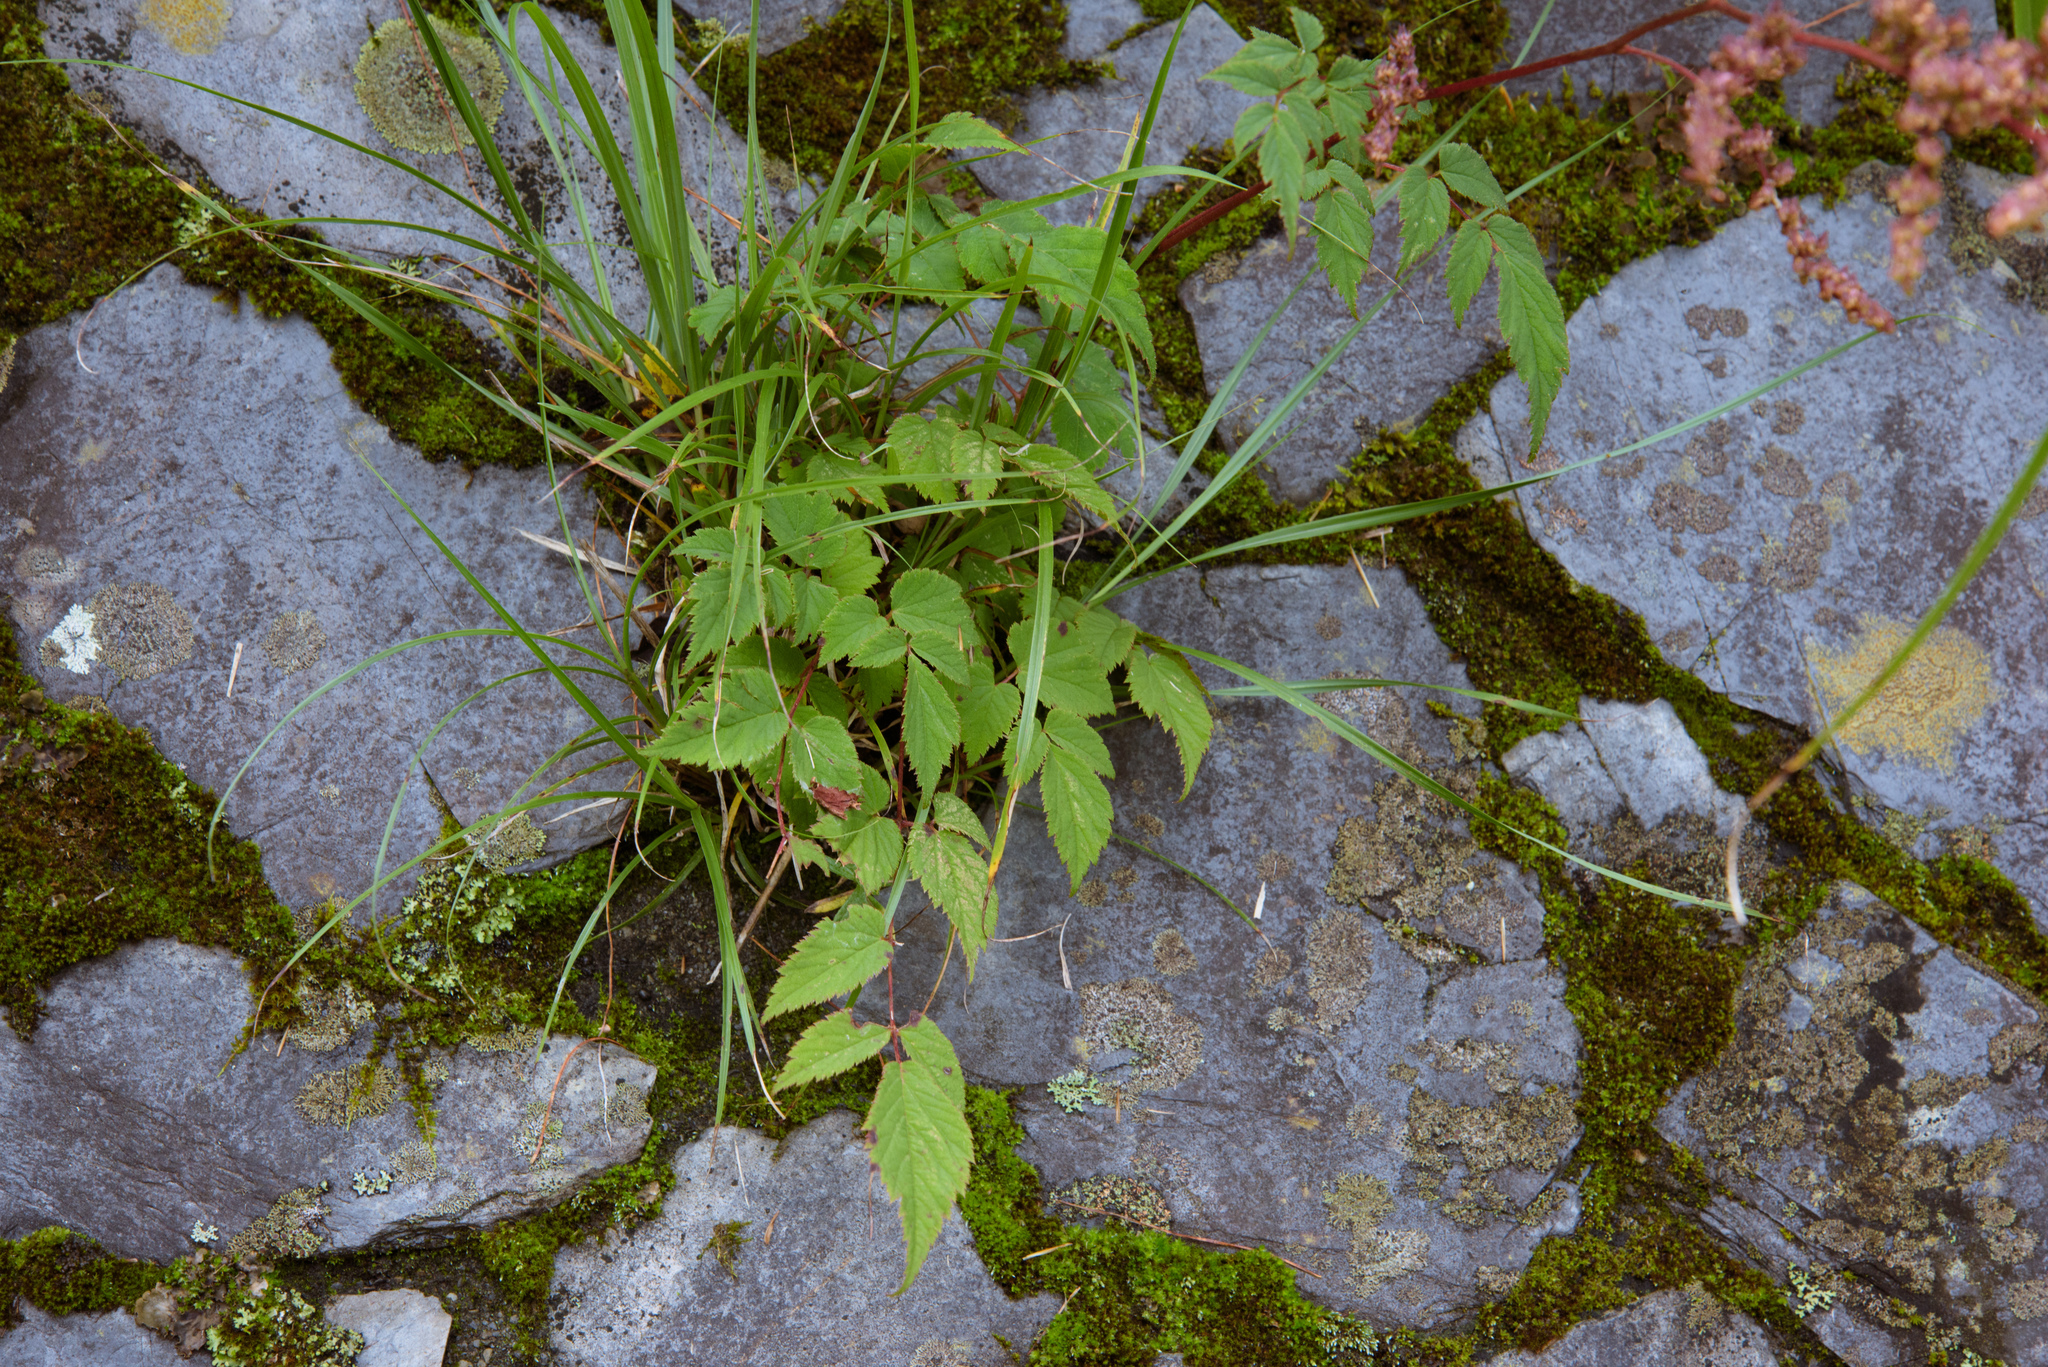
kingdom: Plantae
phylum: Tracheophyta
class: Magnoliopsida
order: Saxifragales
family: Saxifragaceae
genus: Astilbe
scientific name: Astilbe longicarpa
